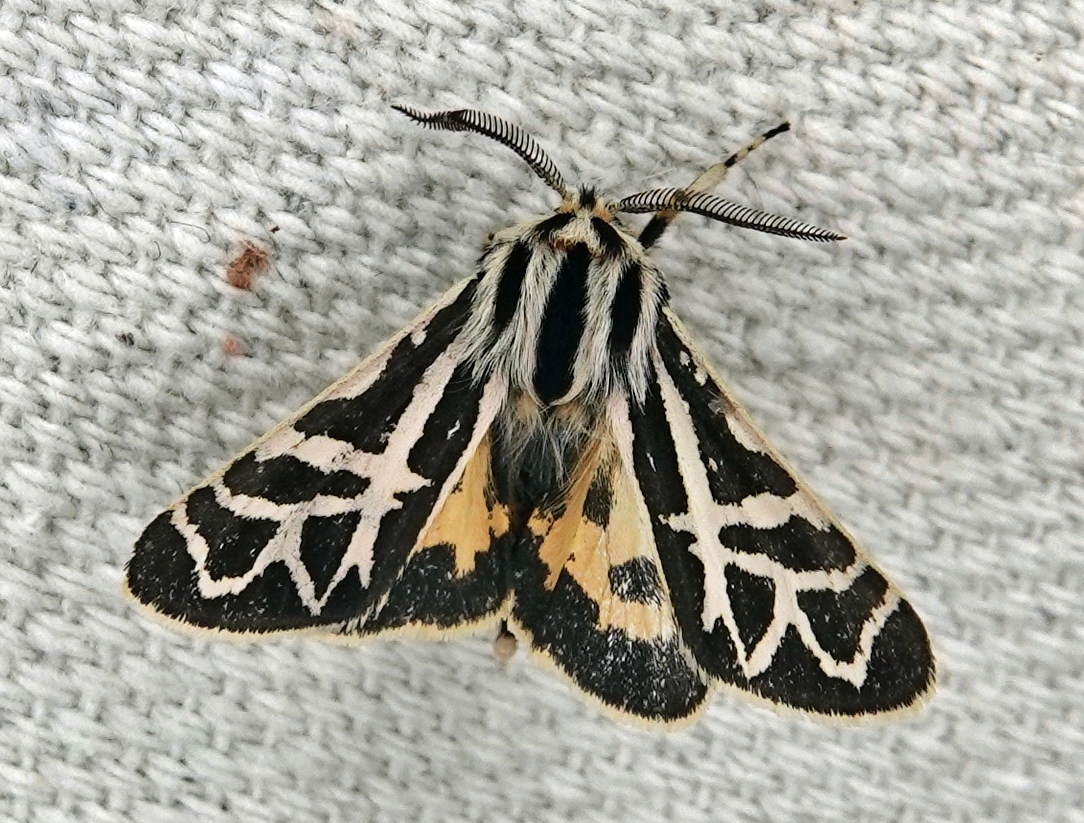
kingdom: Animalia
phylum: Arthropoda
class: Insecta
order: Lepidoptera
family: Erebidae
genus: Apantesis
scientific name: Apantesis
